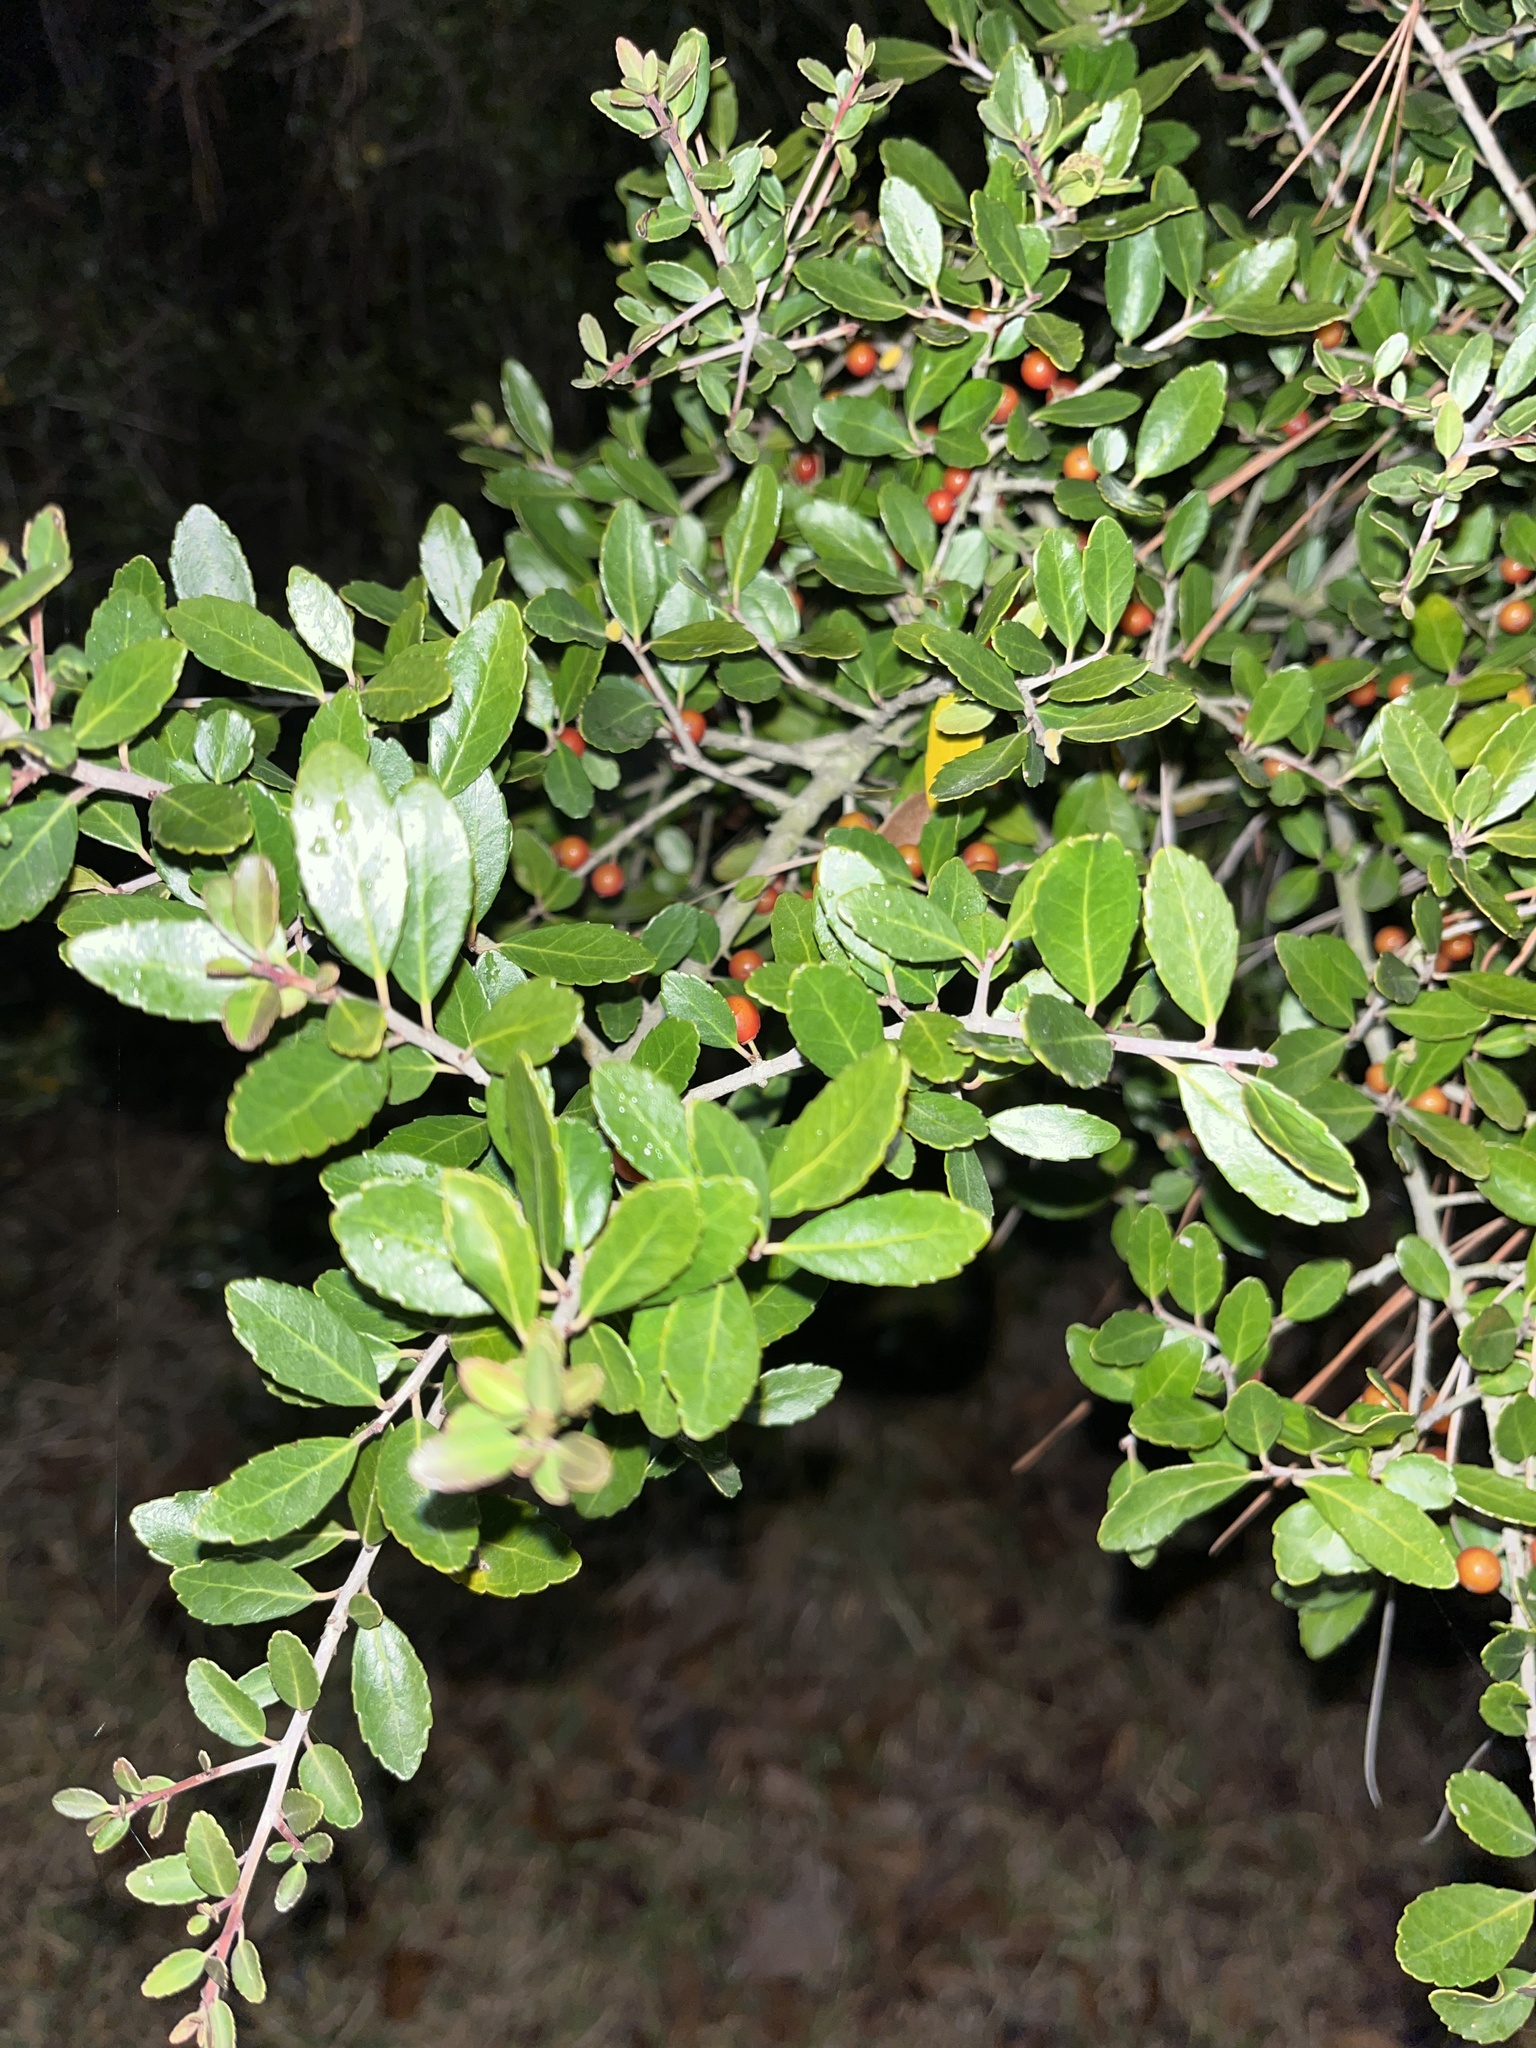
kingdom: Plantae
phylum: Tracheophyta
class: Magnoliopsida
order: Aquifoliales
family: Aquifoliaceae
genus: Ilex
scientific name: Ilex vomitoria
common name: Yaupon holly
